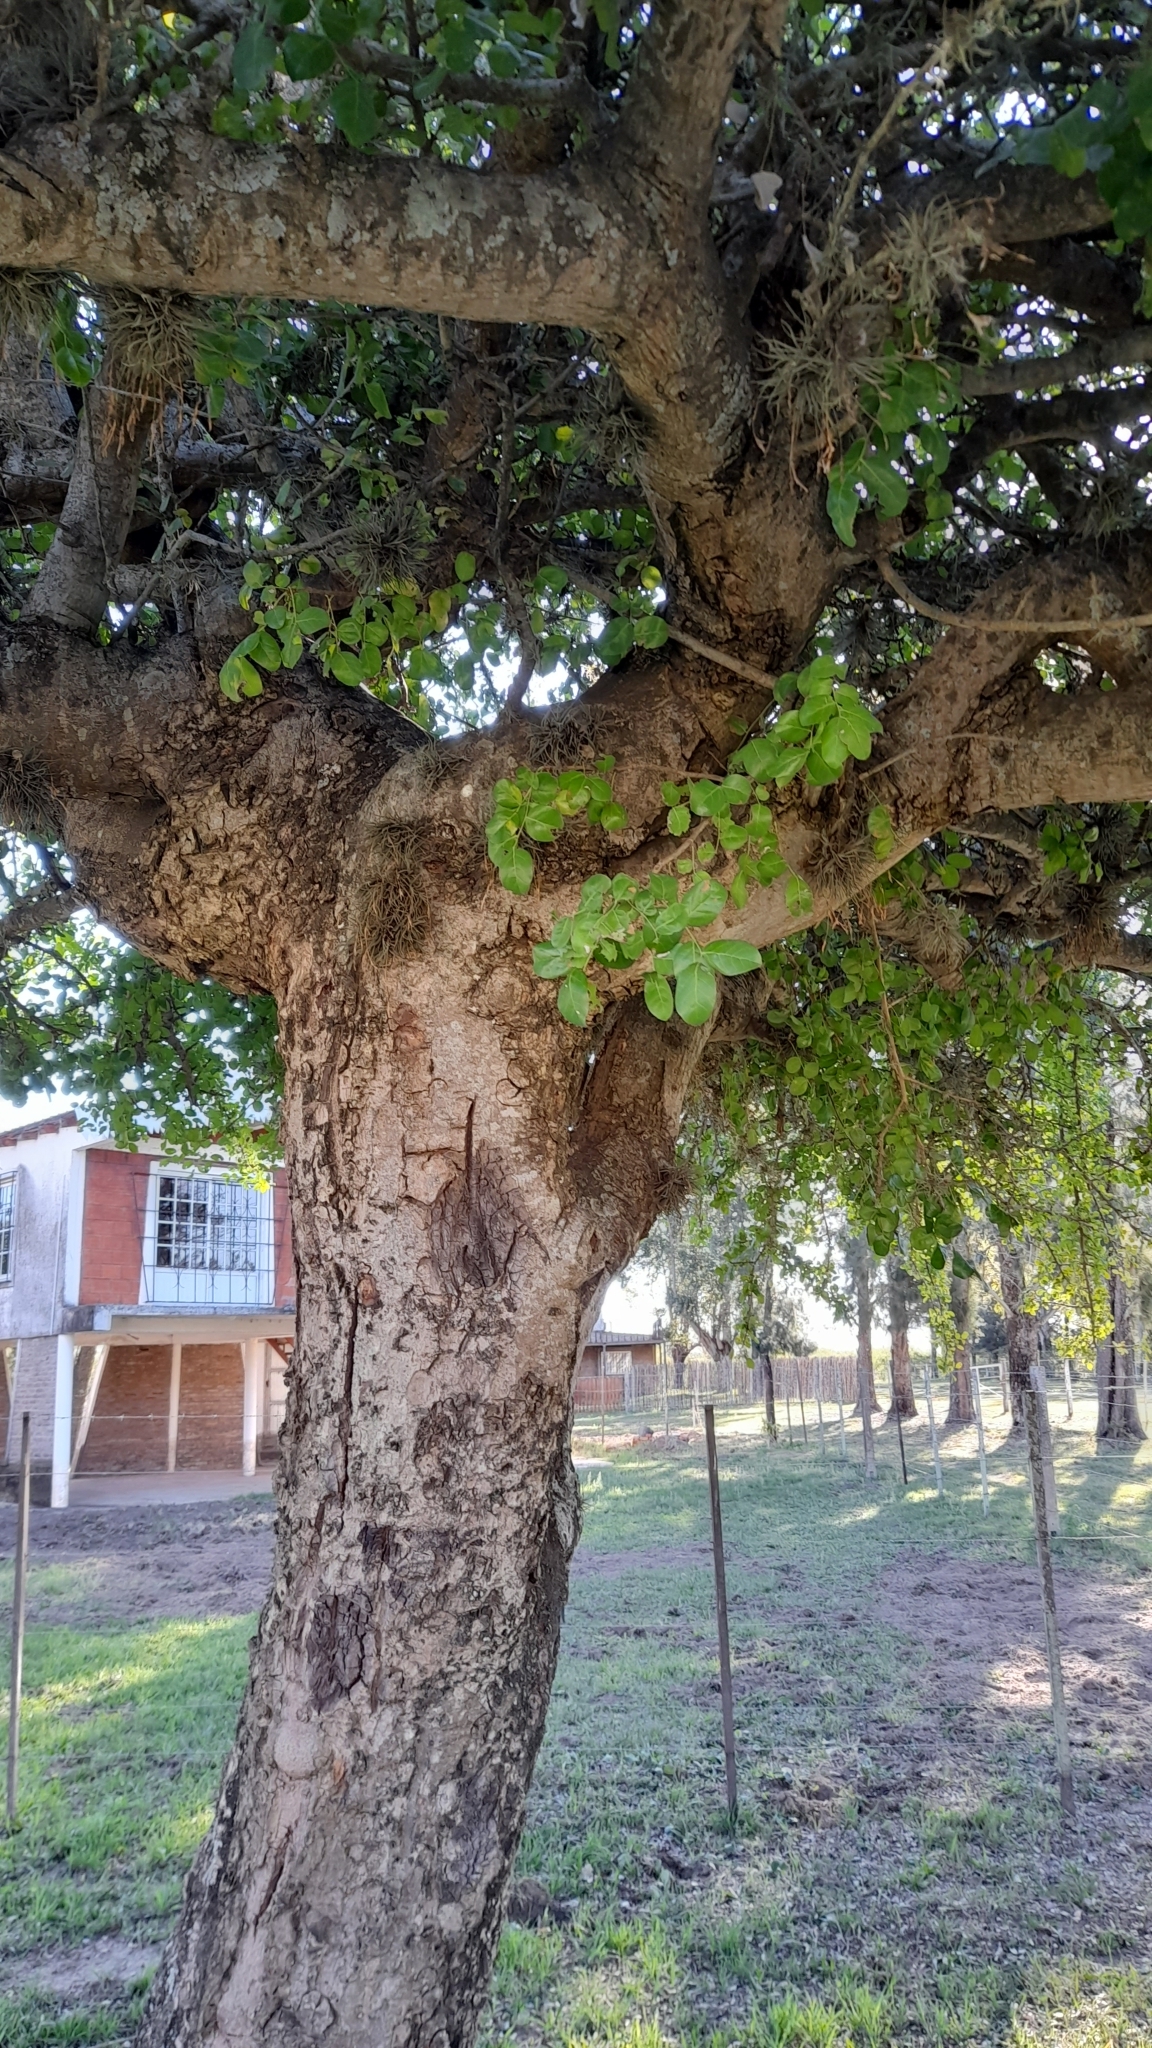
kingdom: Plantae
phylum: Tracheophyta
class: Magnoliopsida
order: Malpighiales
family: Phyllanthaceae
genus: Phyllanthus
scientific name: Phyllanthus chacoensis
